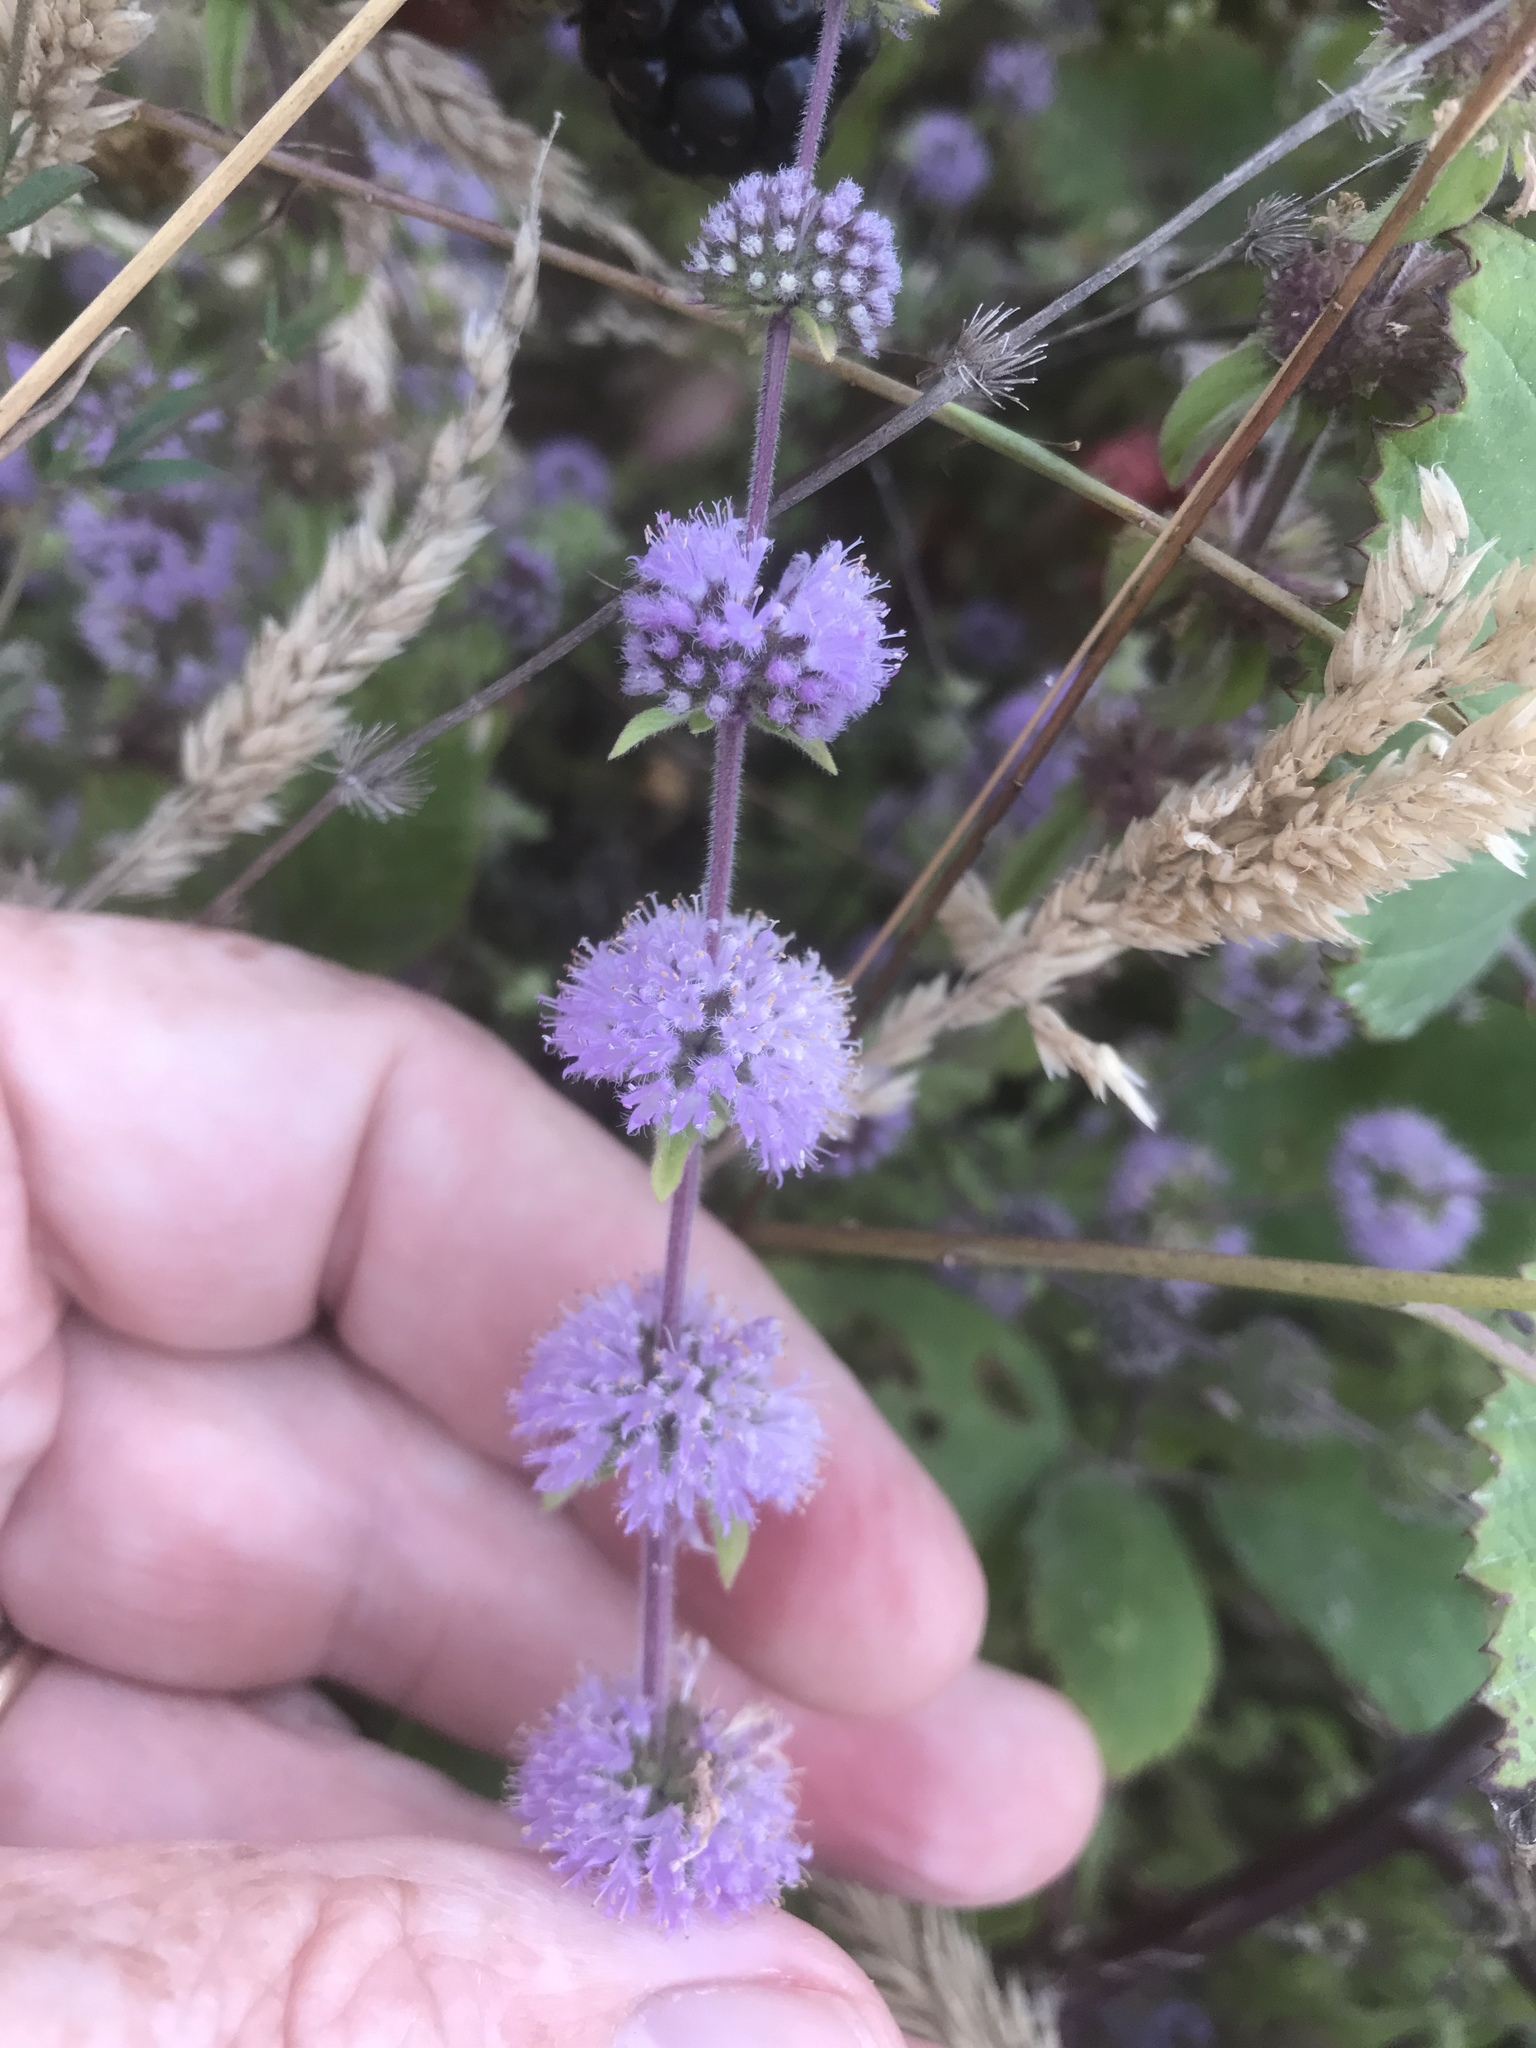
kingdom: Plantae
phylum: Tracheophyta
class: Magnoliopsida
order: Lamiales
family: Lamiaceae
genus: Mentha
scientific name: Mentha pulegium
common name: Pennyroyal
